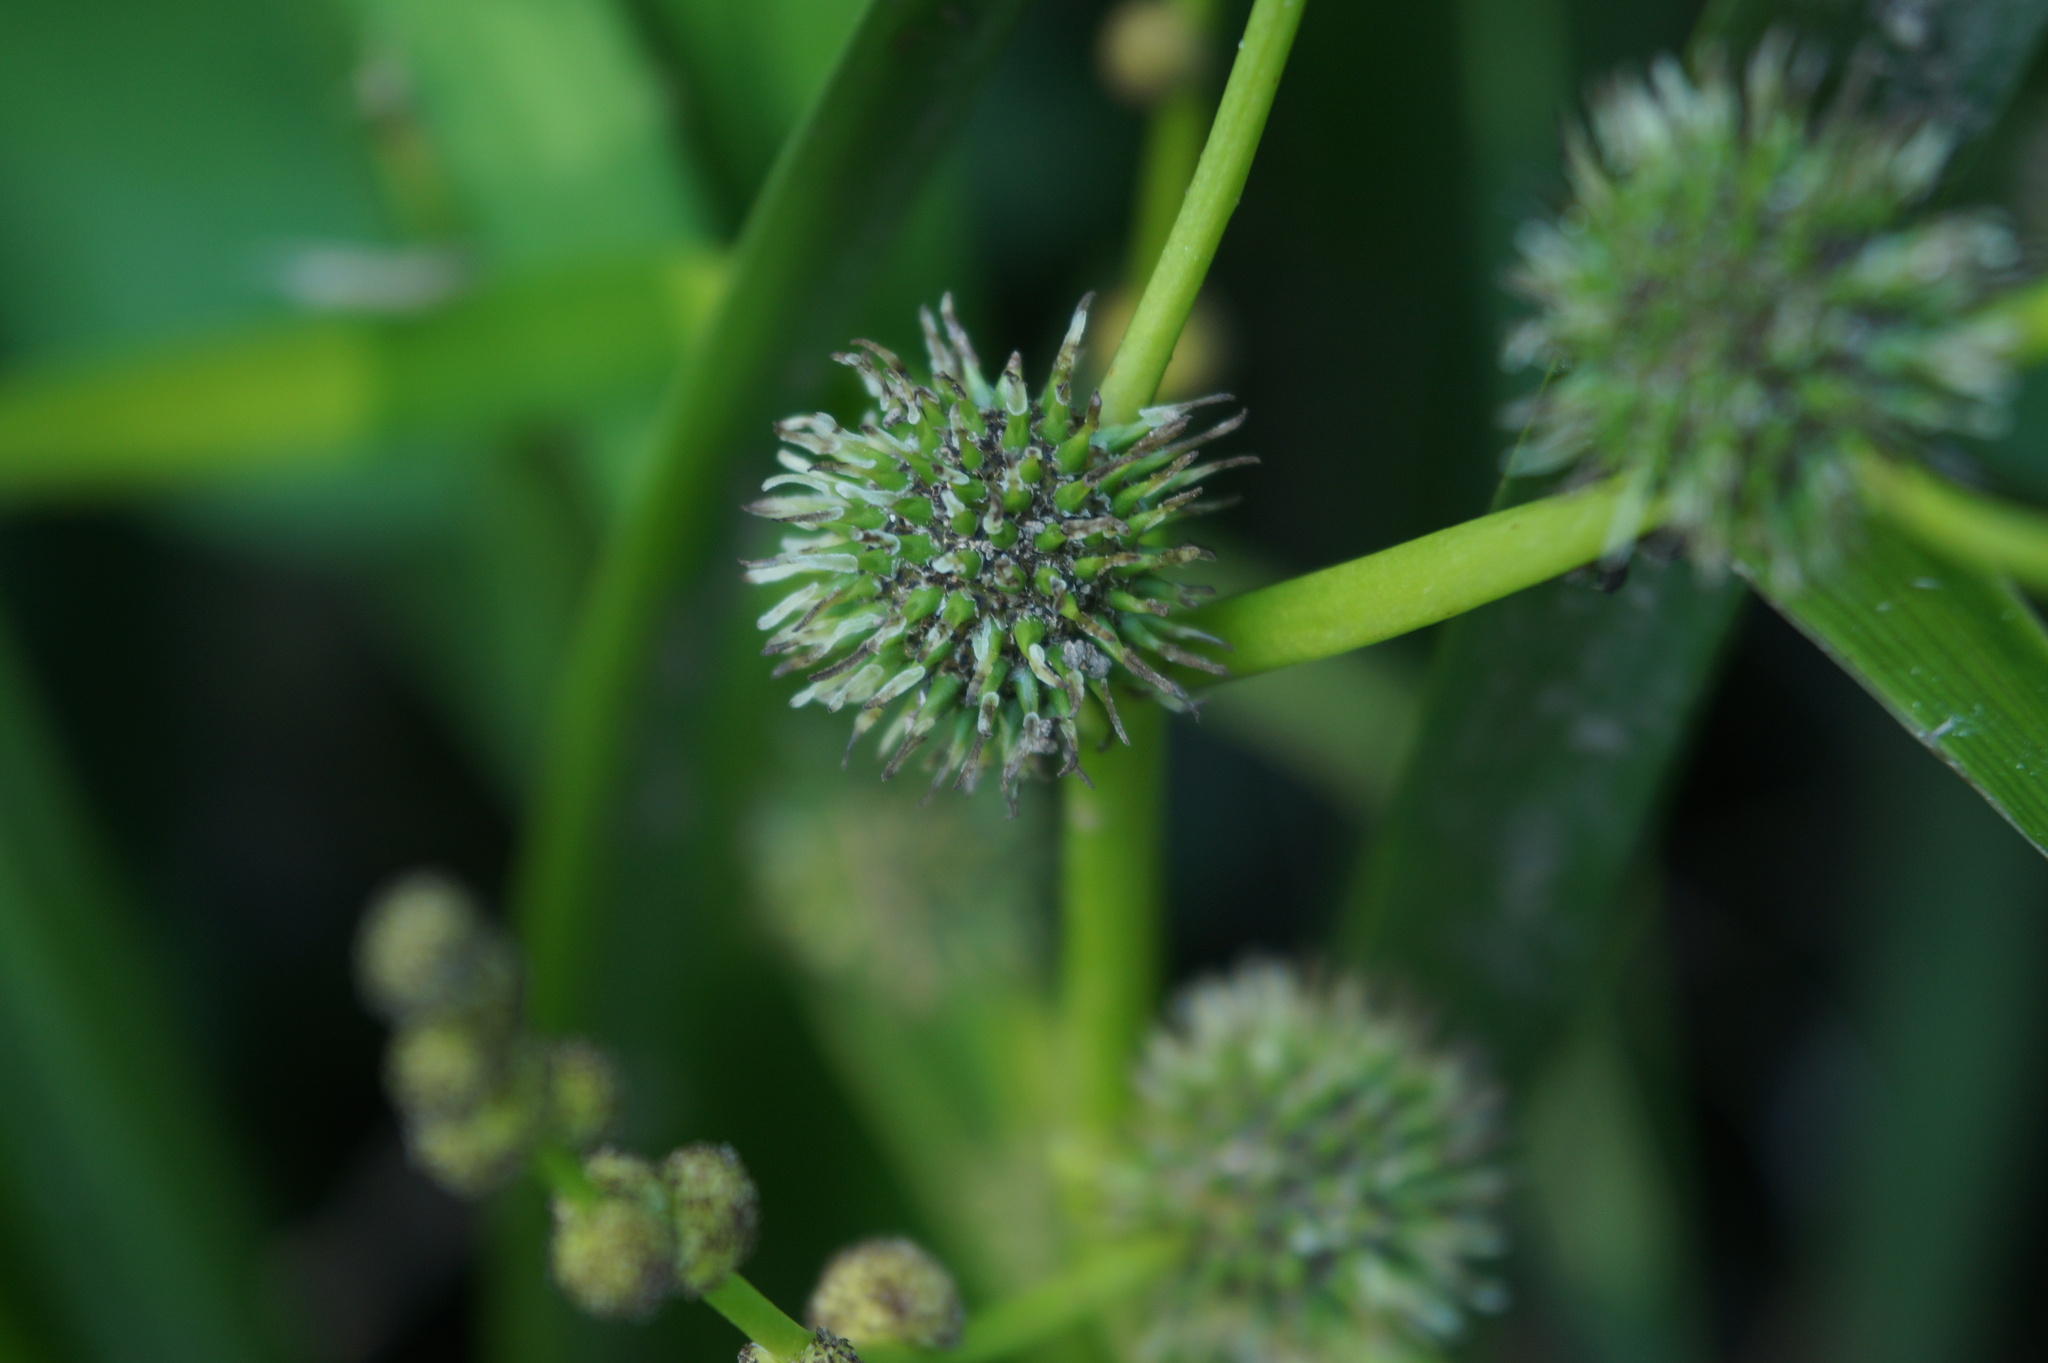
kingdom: Plantae
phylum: Tracheophyta
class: Liliopsida
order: Poales
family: Typhaceae
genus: Sparganium
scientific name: Sparganium erectum
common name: Branched bur-reed
